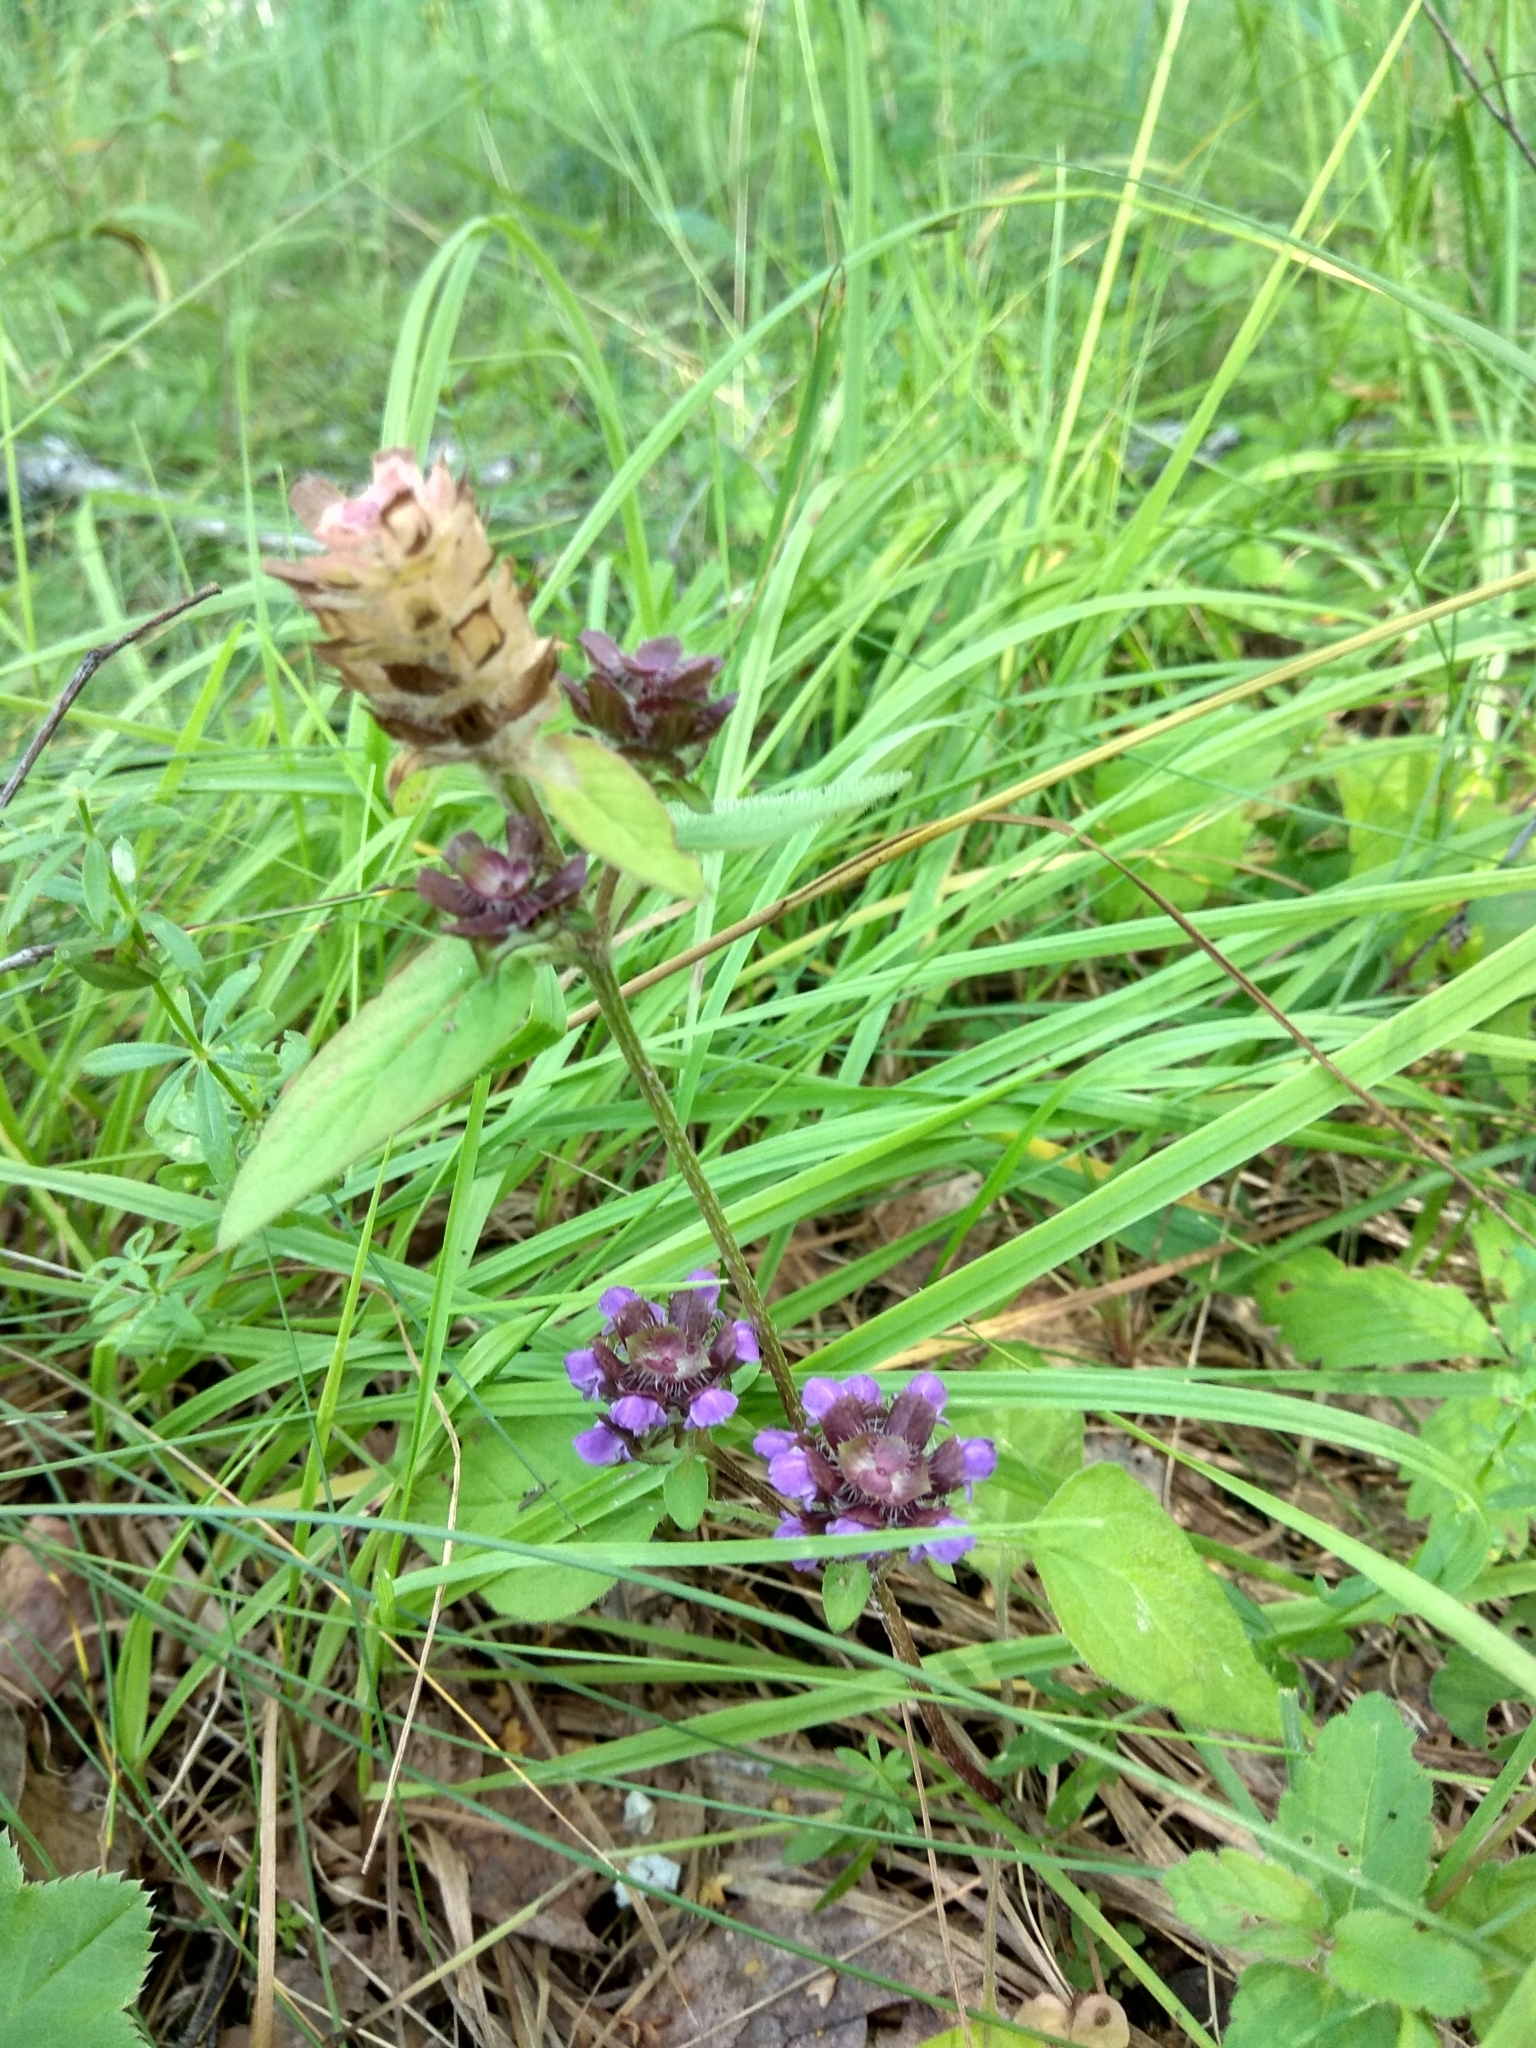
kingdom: Plantae
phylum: Tracheophyta
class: Magnoliopsida
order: Lamiales
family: Lamiaceae
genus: Prunella
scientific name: Prunella vulgaris
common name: Heal-all
